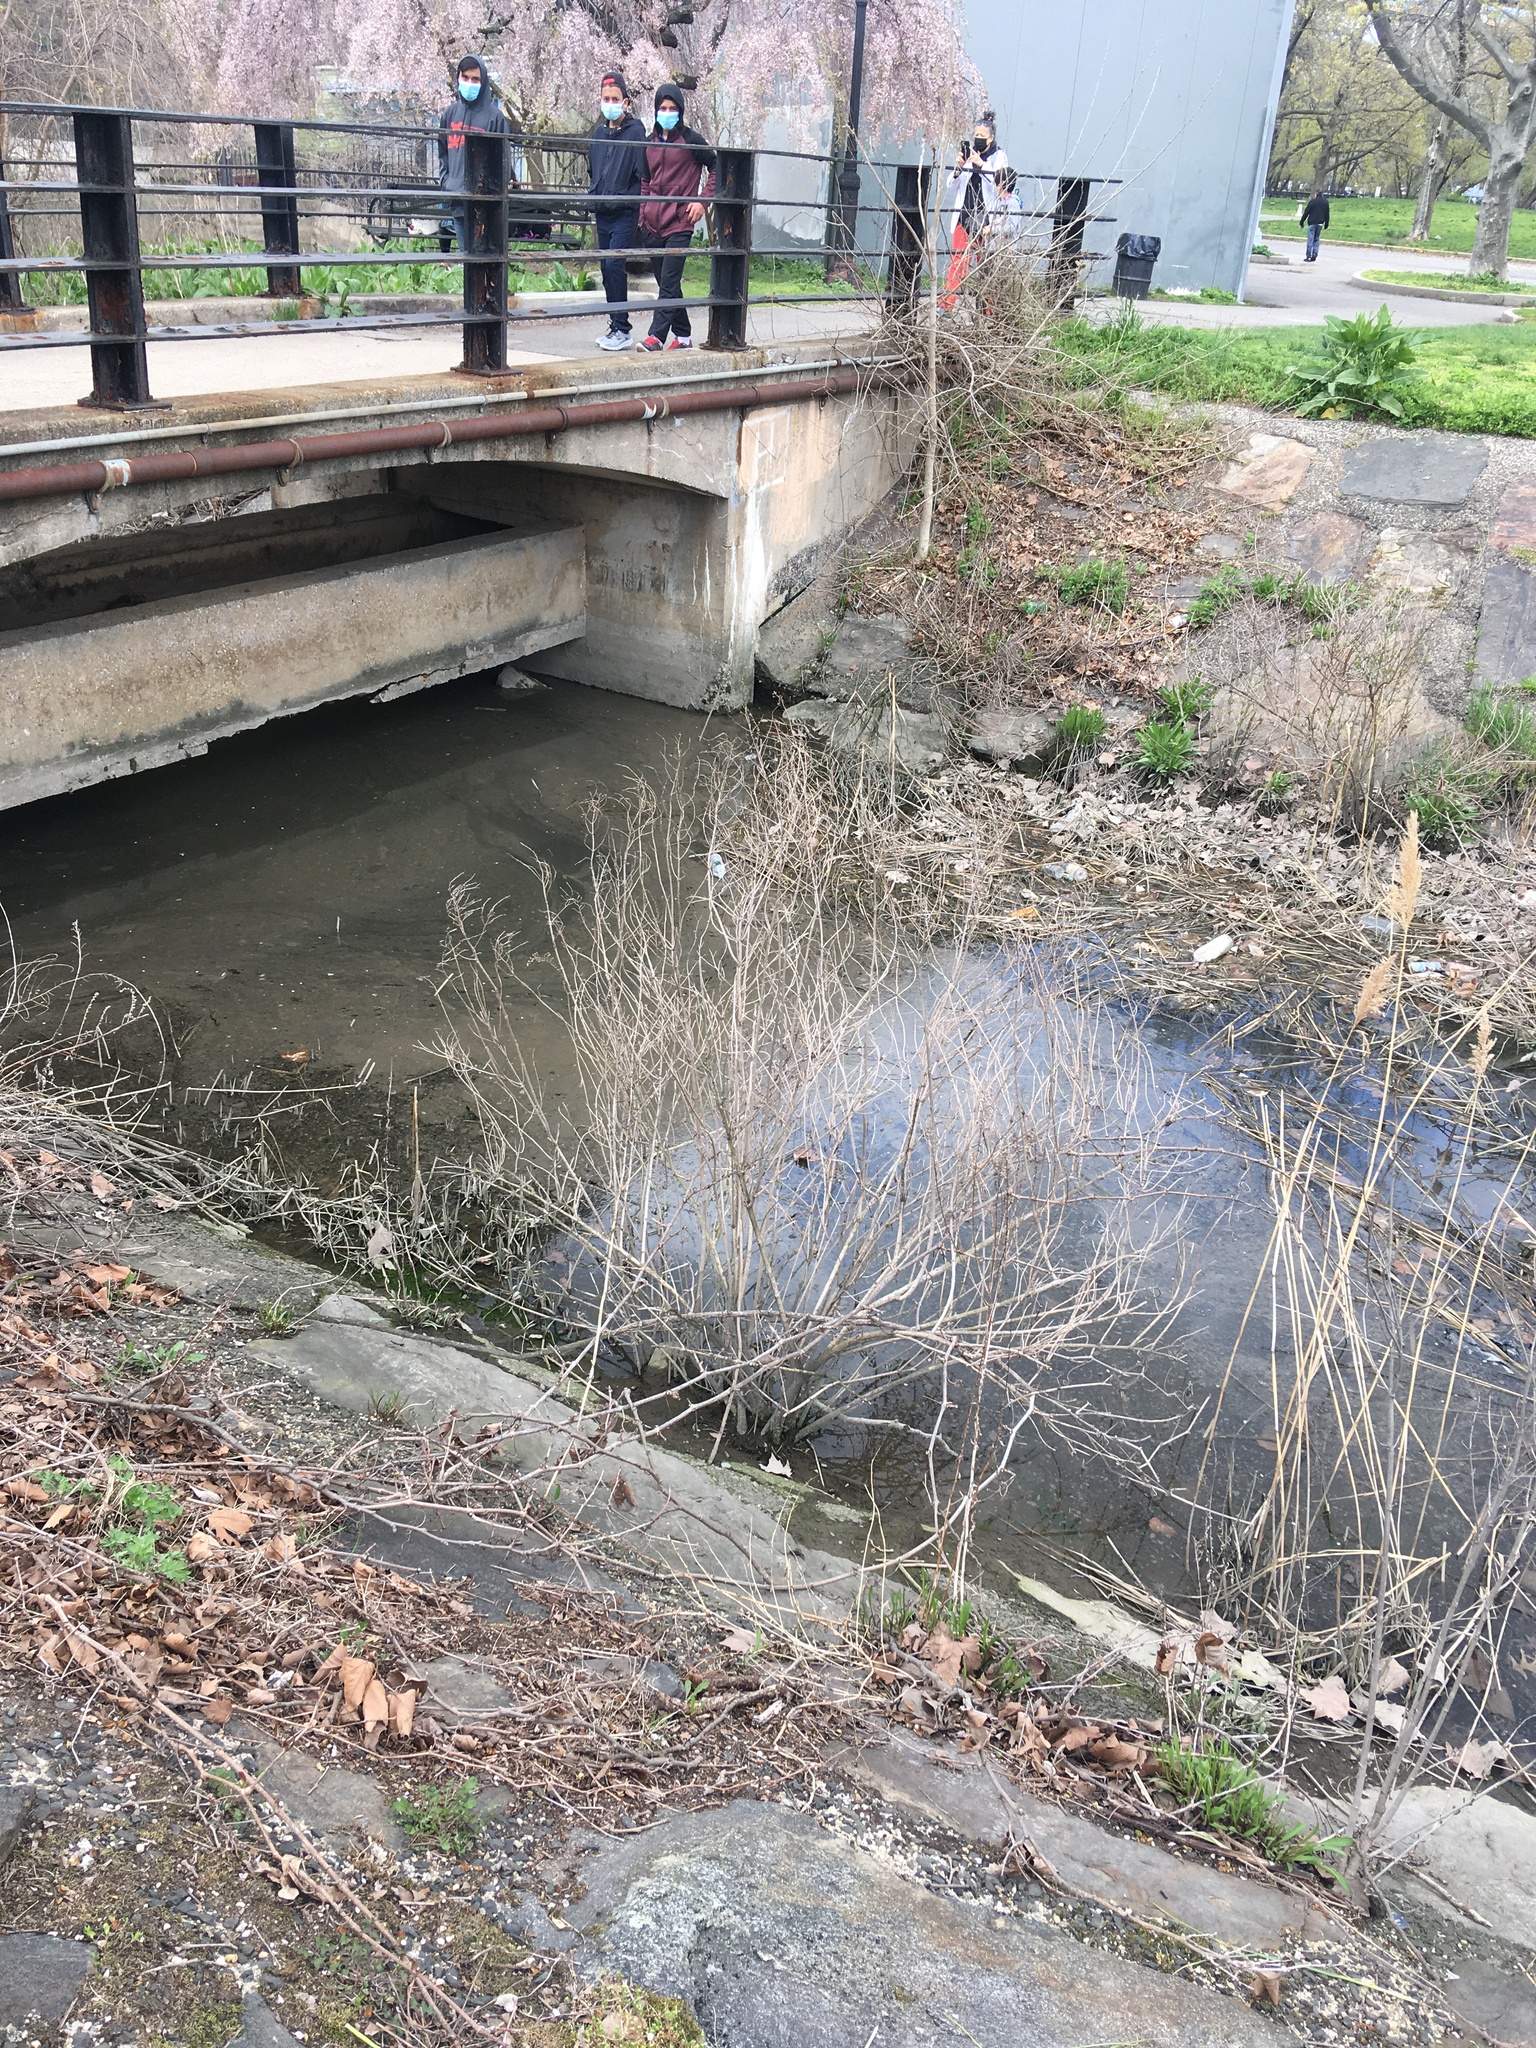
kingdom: Plantae
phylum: Tracheophyta
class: Magnoliopsida
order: Asterales
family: Asteraceae
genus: Baccharis
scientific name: Baccharis halimifolia
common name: Eastern baccharis
